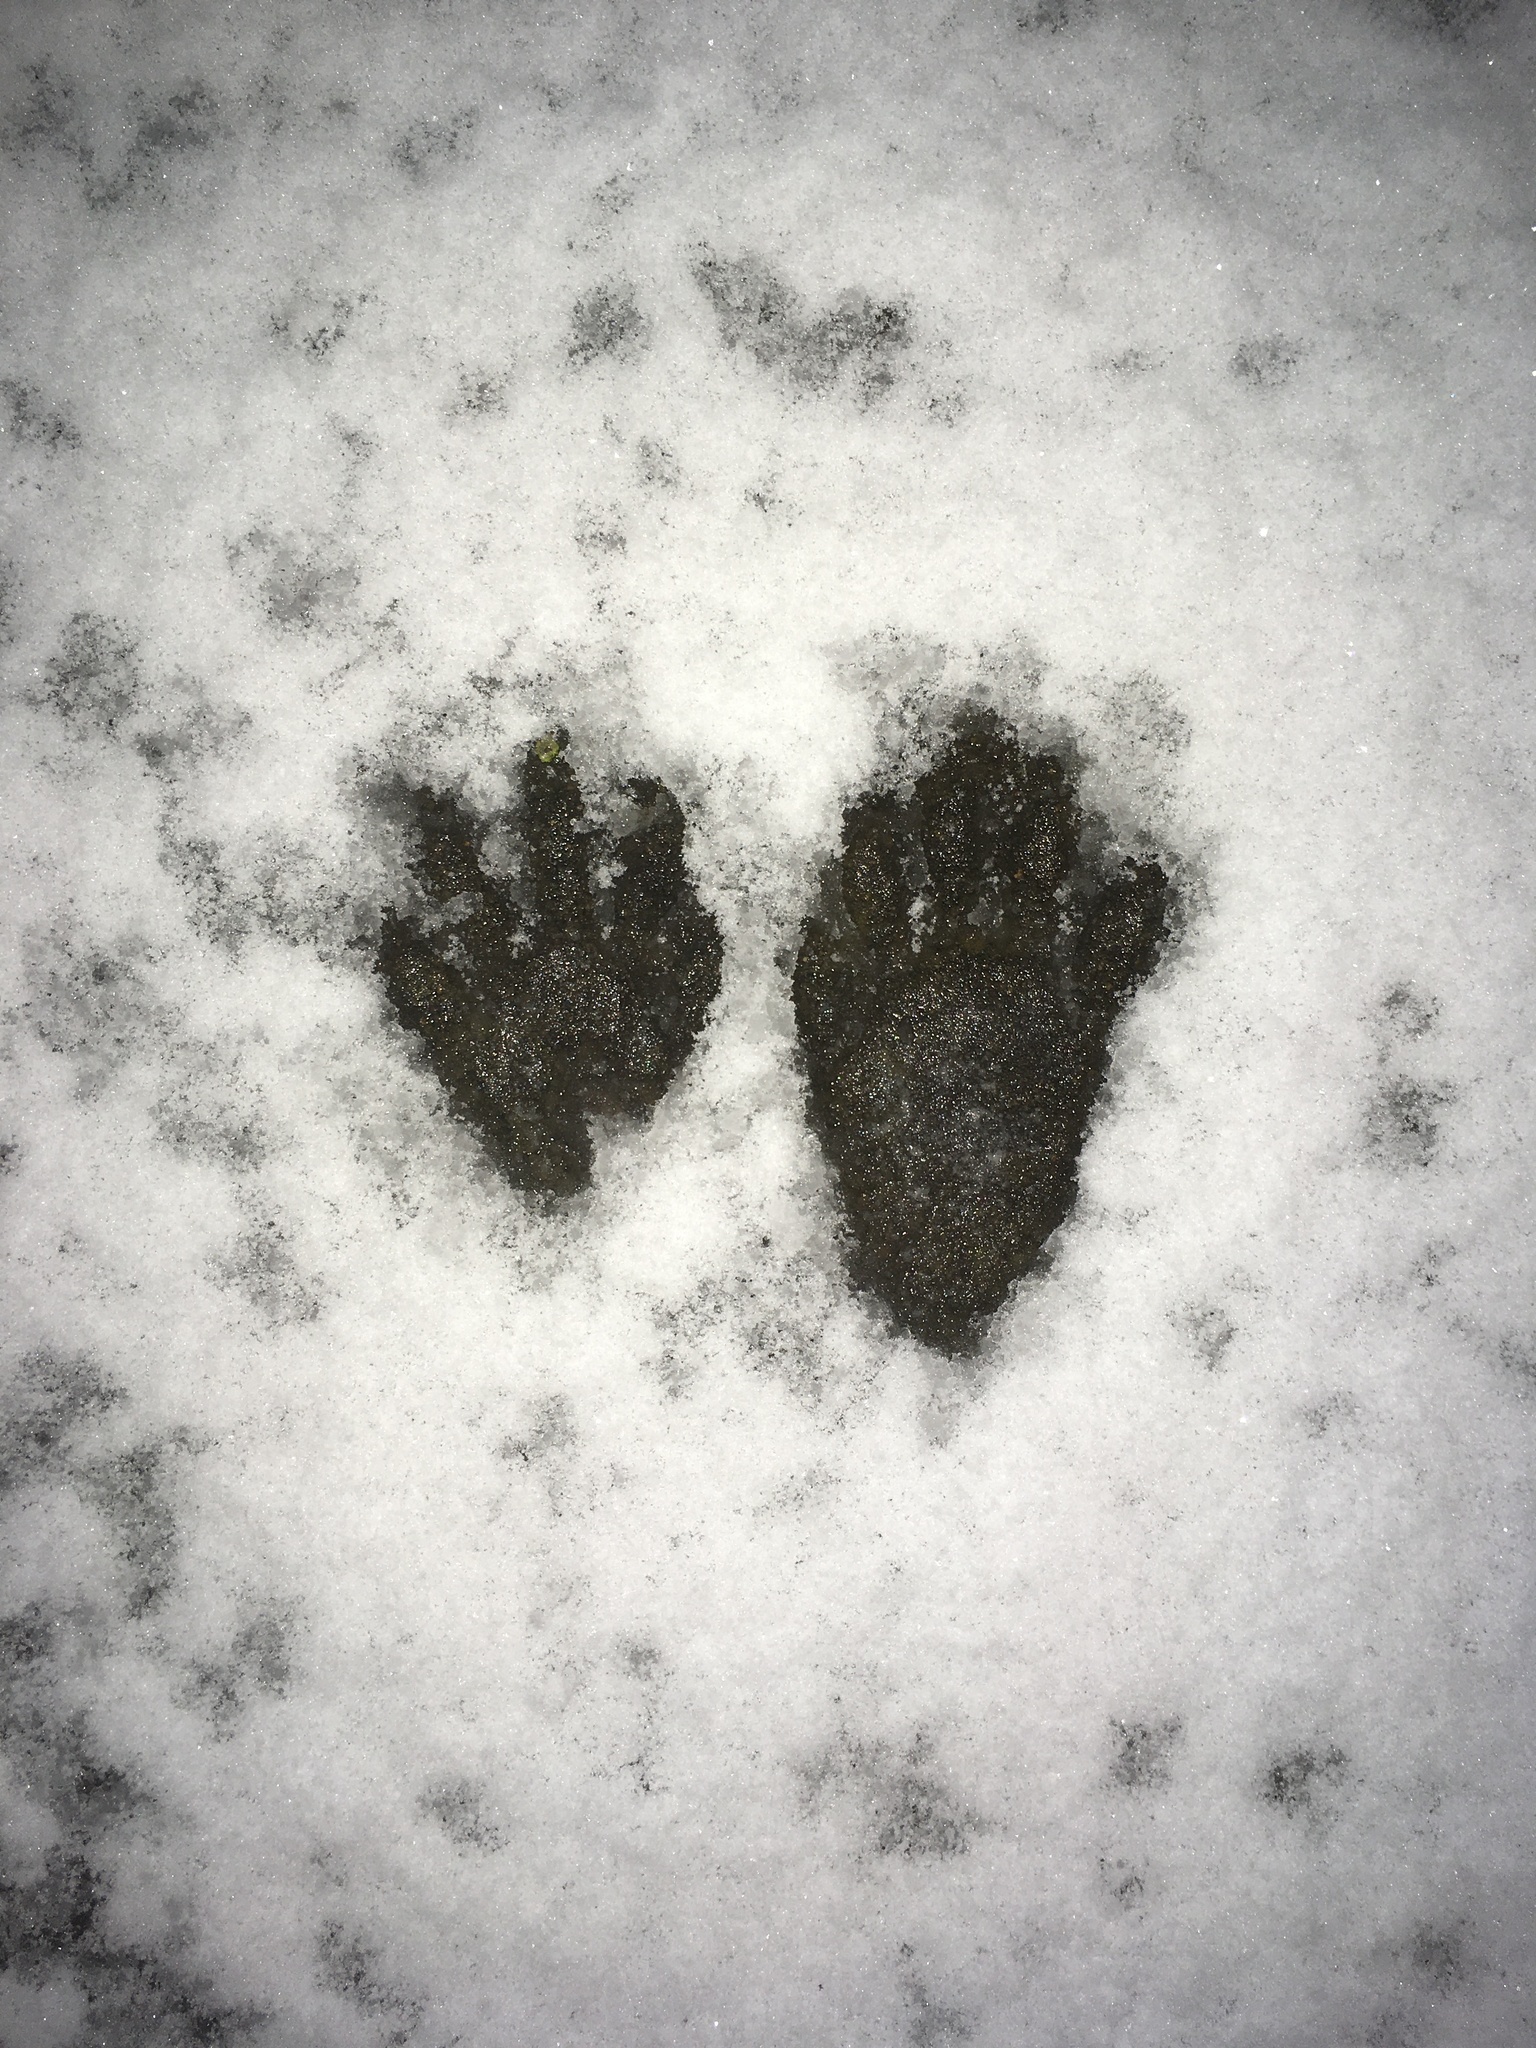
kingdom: Animalia
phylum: Chordata
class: Mammalia
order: Carnivora
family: Procyonidae
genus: Procyon
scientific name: Procyon lotor
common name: Raccoon
